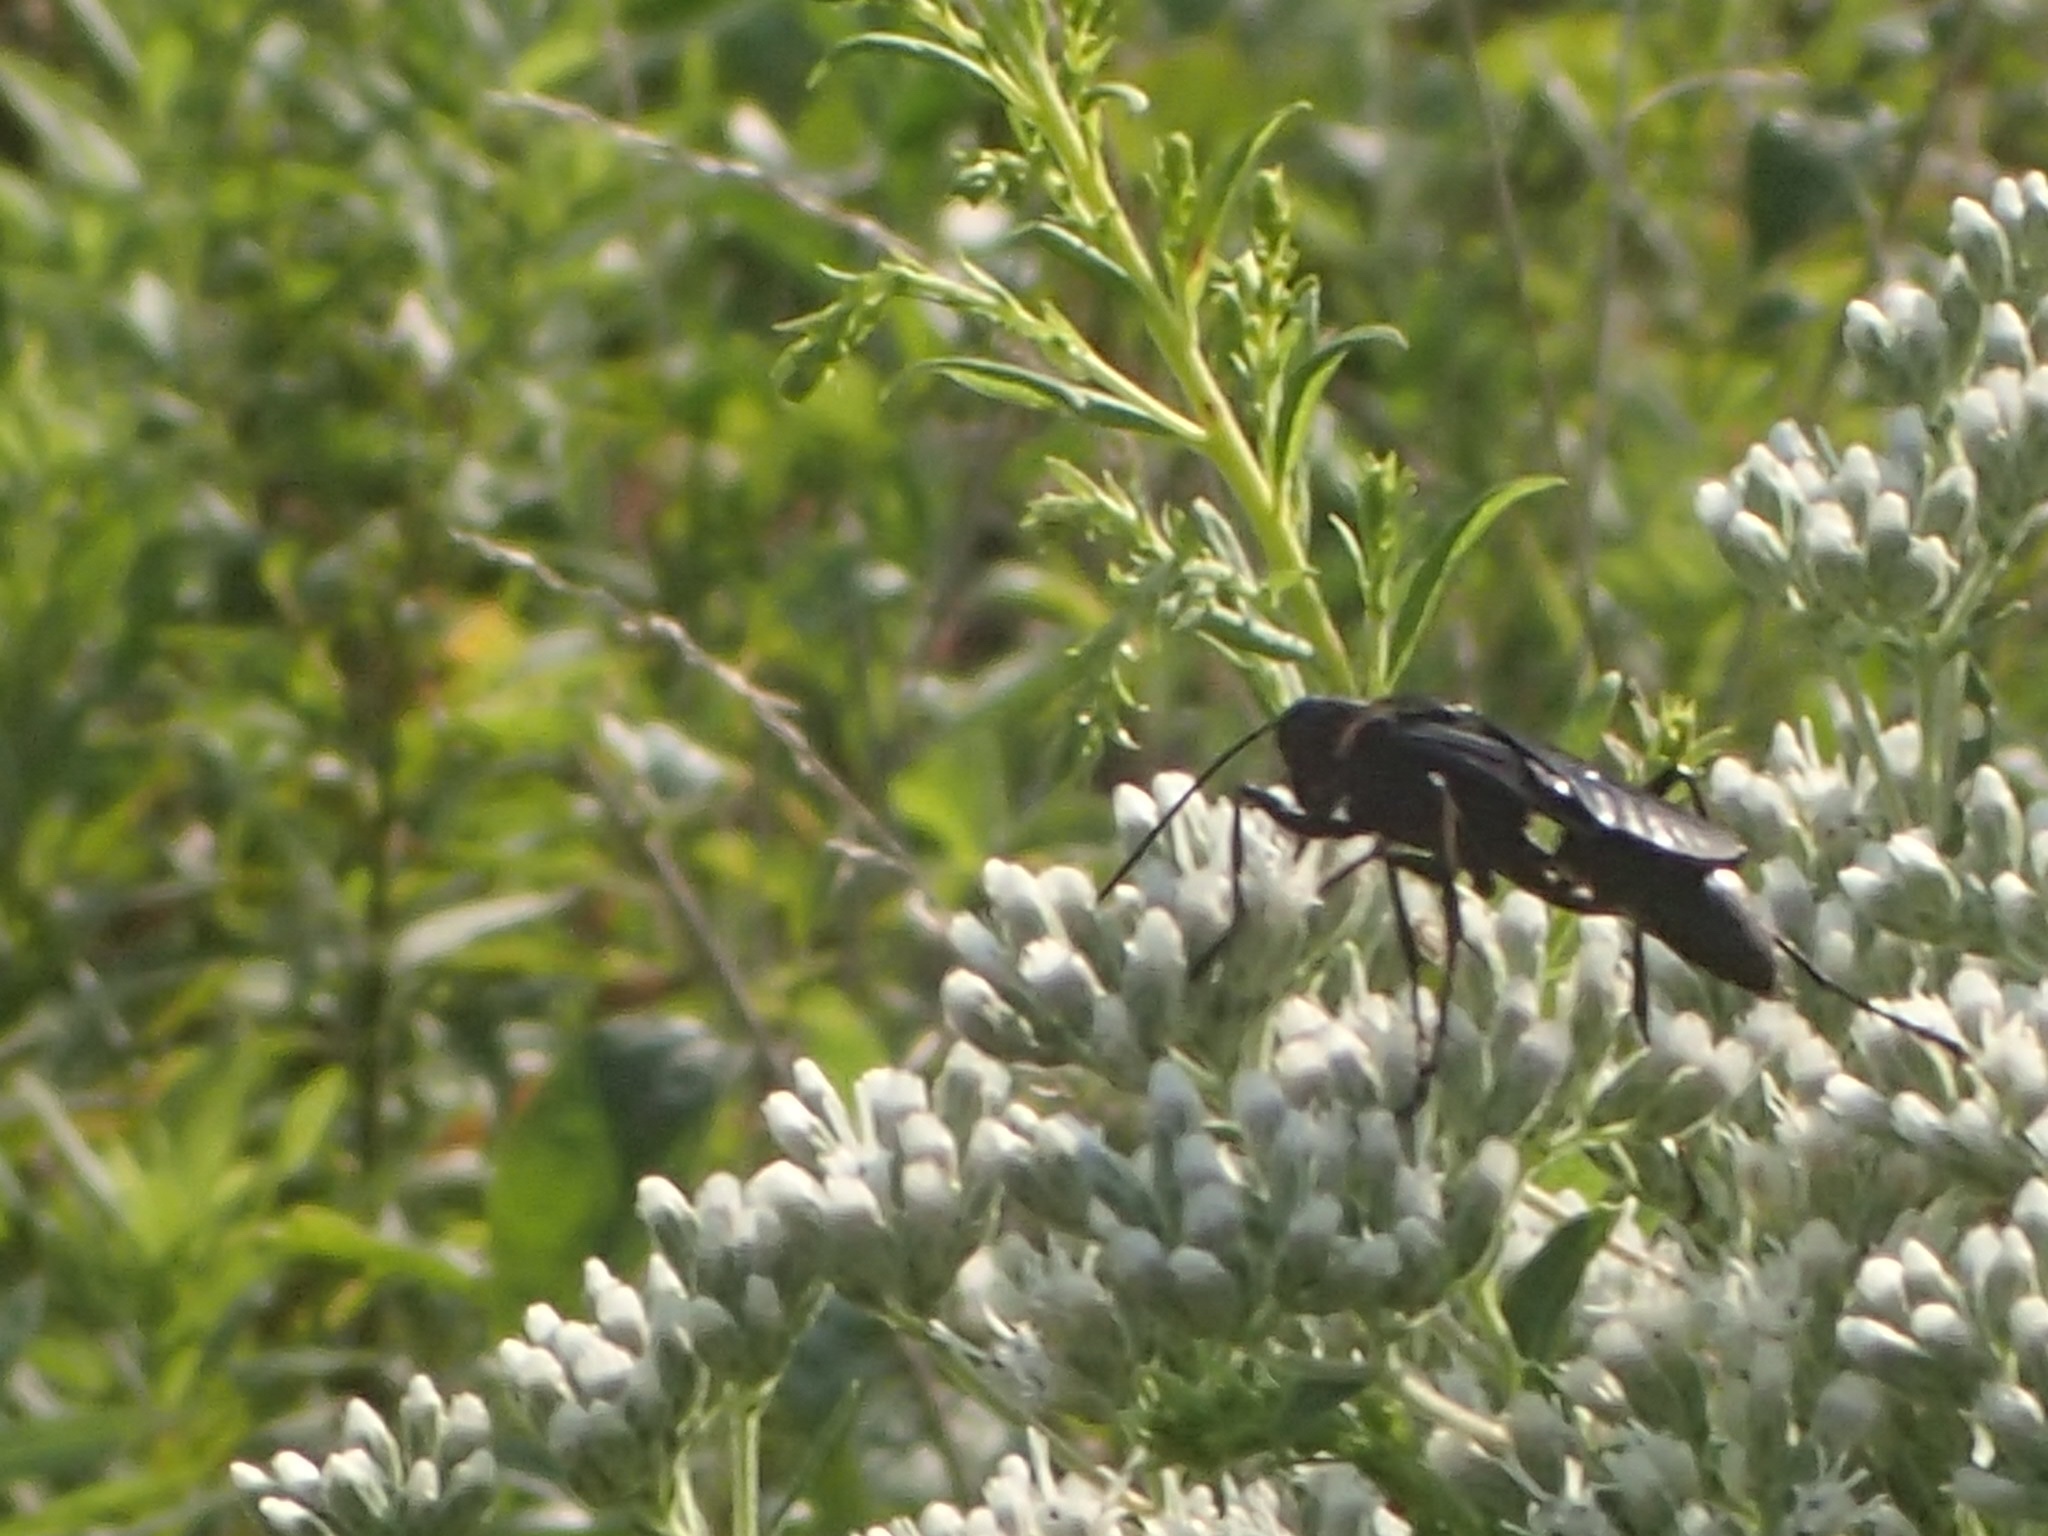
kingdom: Animalia
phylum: Arthropoda
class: Insecta
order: Hymenoptera
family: Sphecidae
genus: Sphex
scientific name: Sphex pensylvanicus
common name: Great black digger wasp
